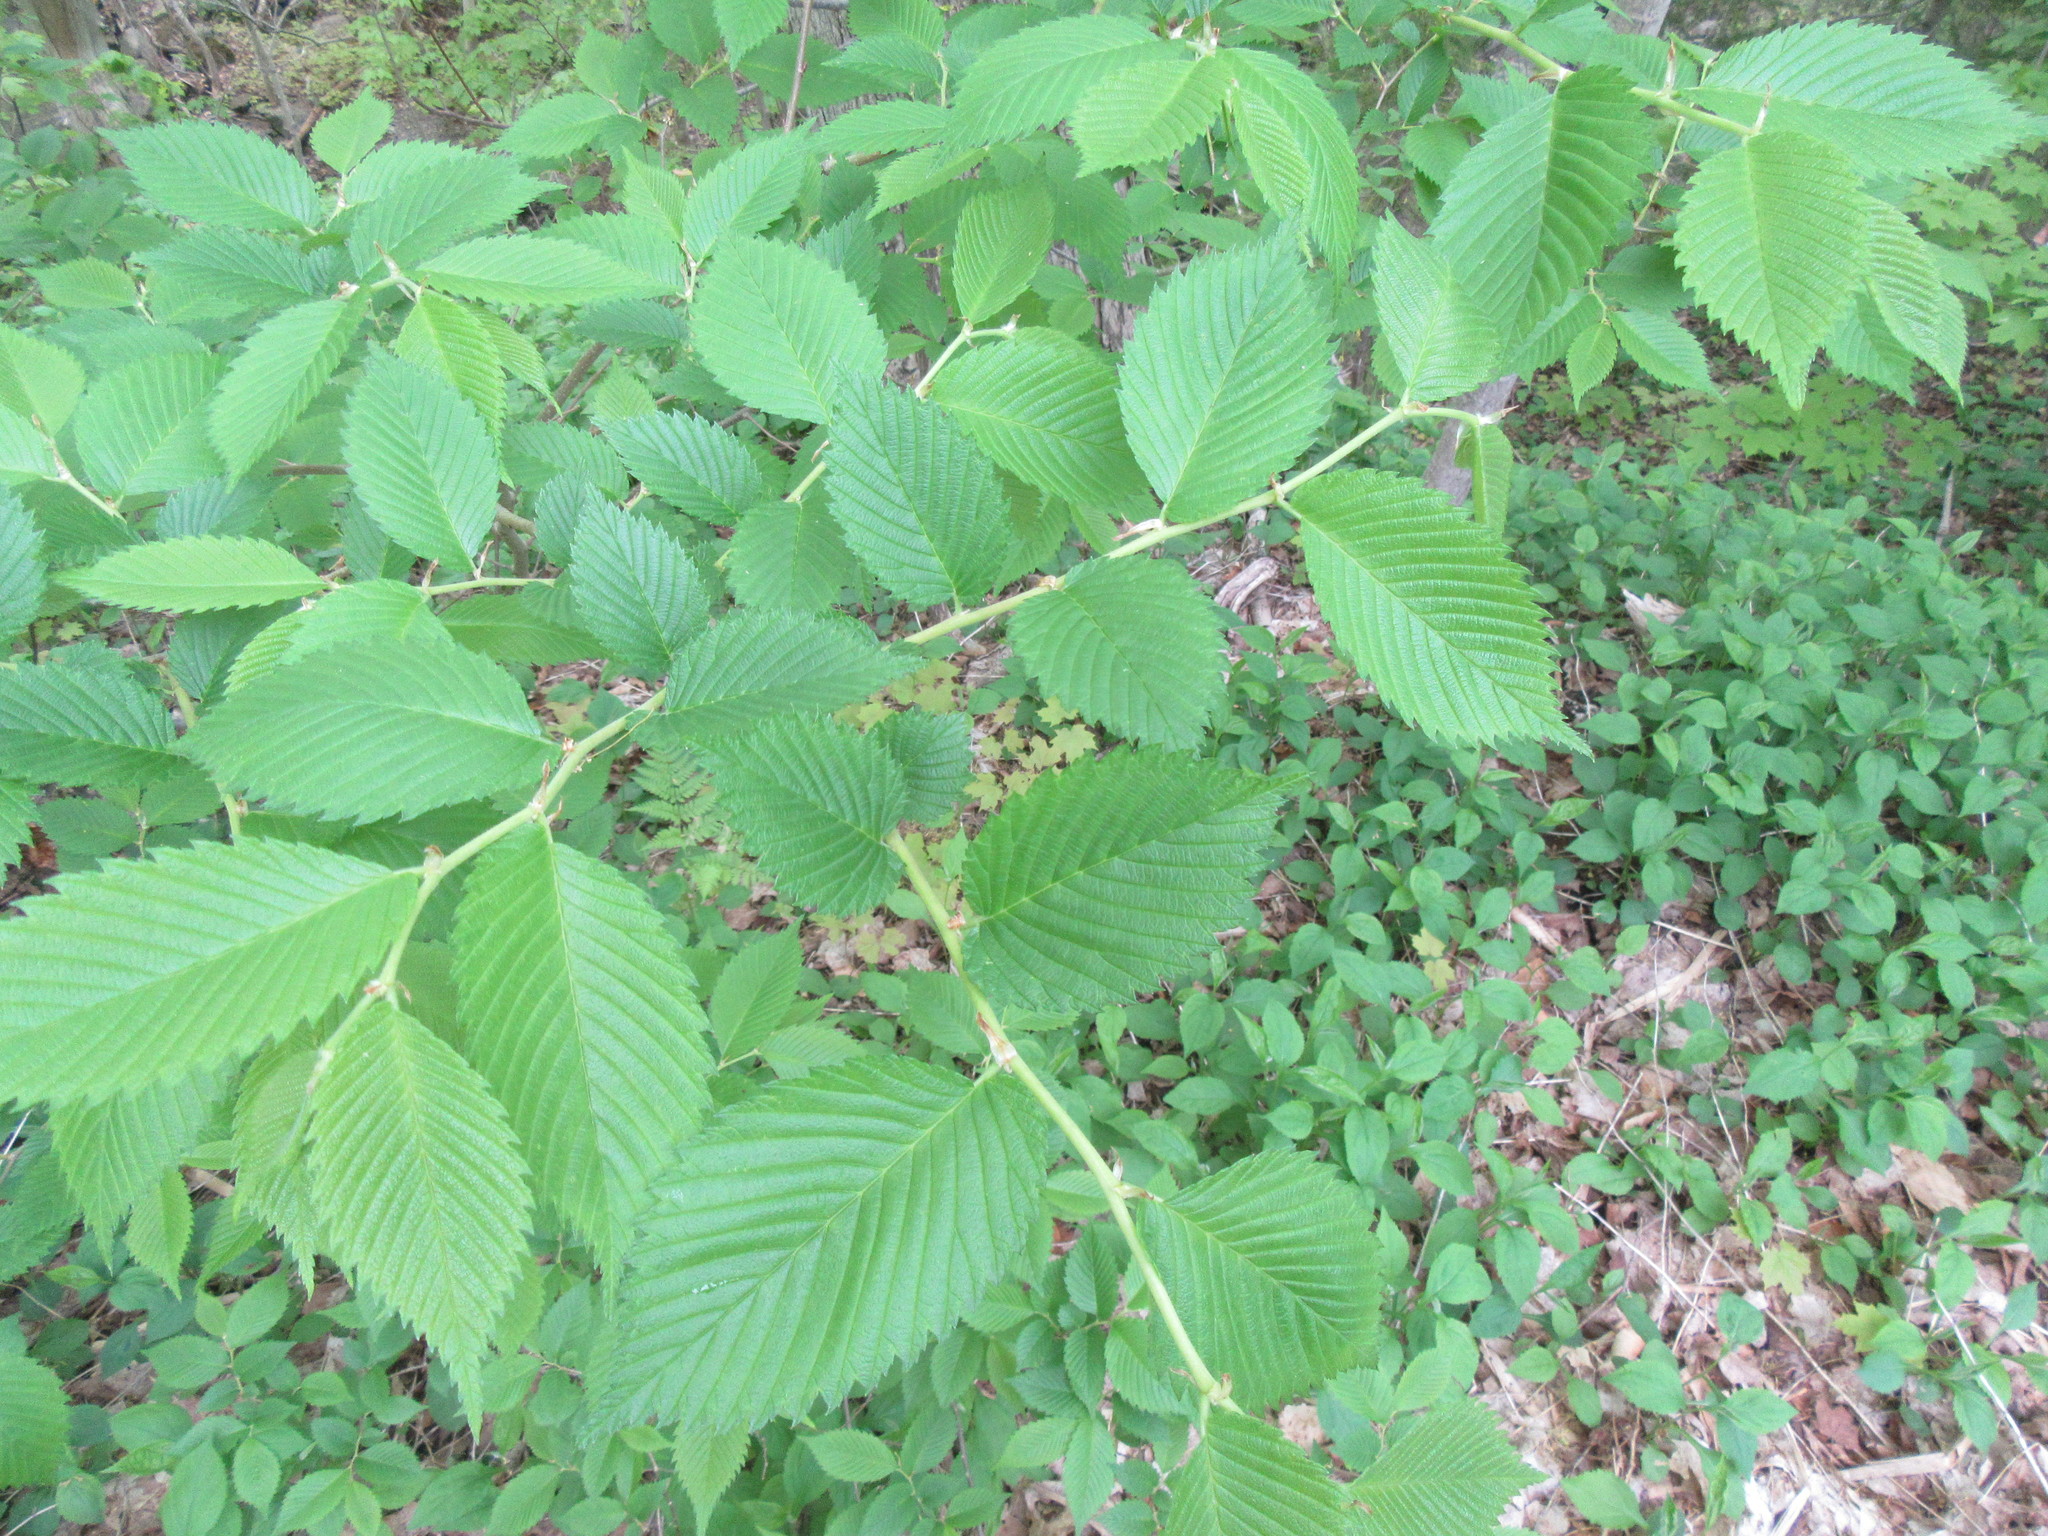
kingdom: Plantae
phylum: Tracheophyta
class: Magnoliopsida
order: Rosales
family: Ulmaceae
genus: Ulmus
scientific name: Ulmus americana
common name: American elm
